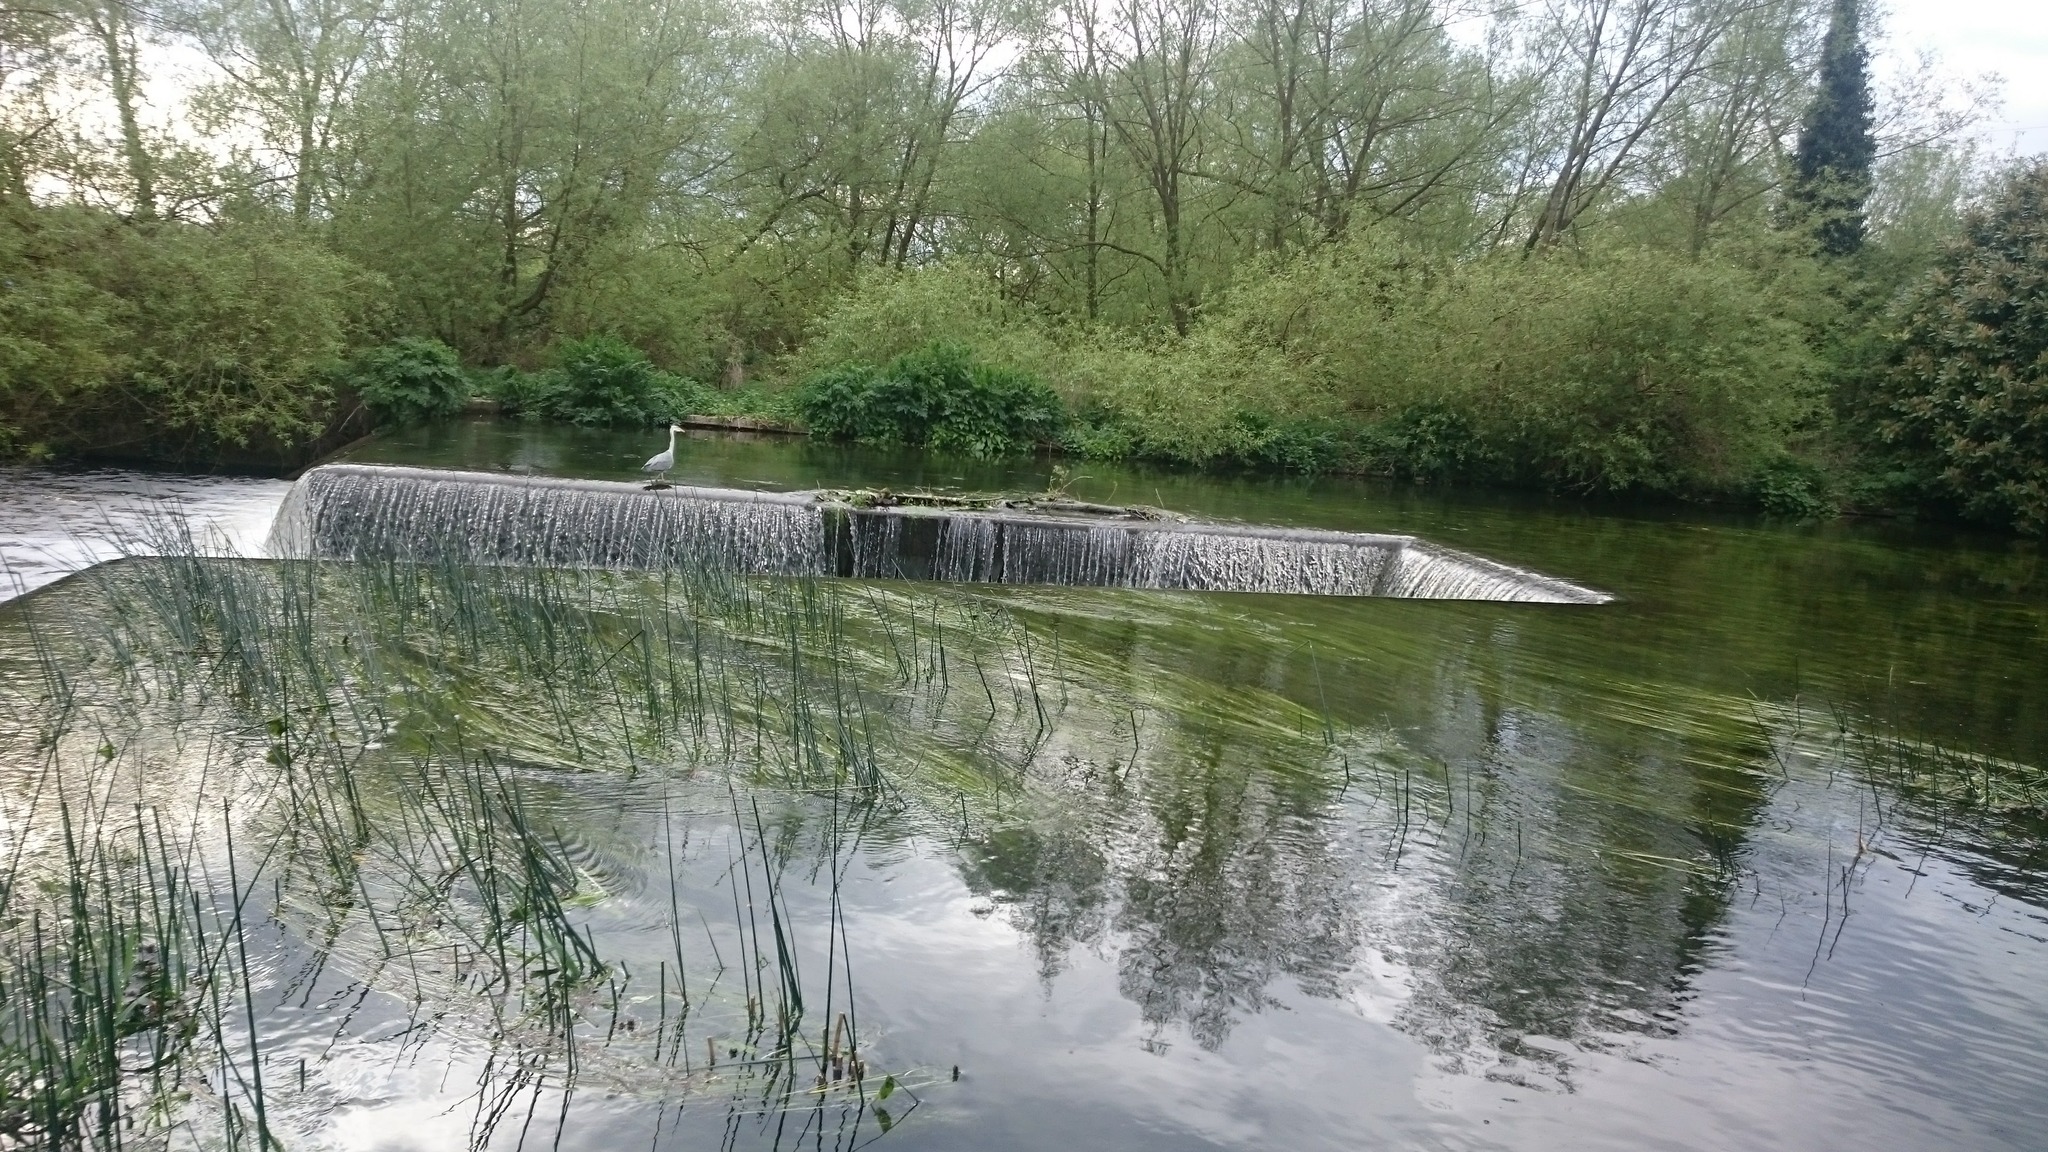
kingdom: Animalia
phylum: Chordata
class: Aves
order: Pelecaniformes
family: Ardeidae
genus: Ardea
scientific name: Ardea cinerea
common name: Grey heron
